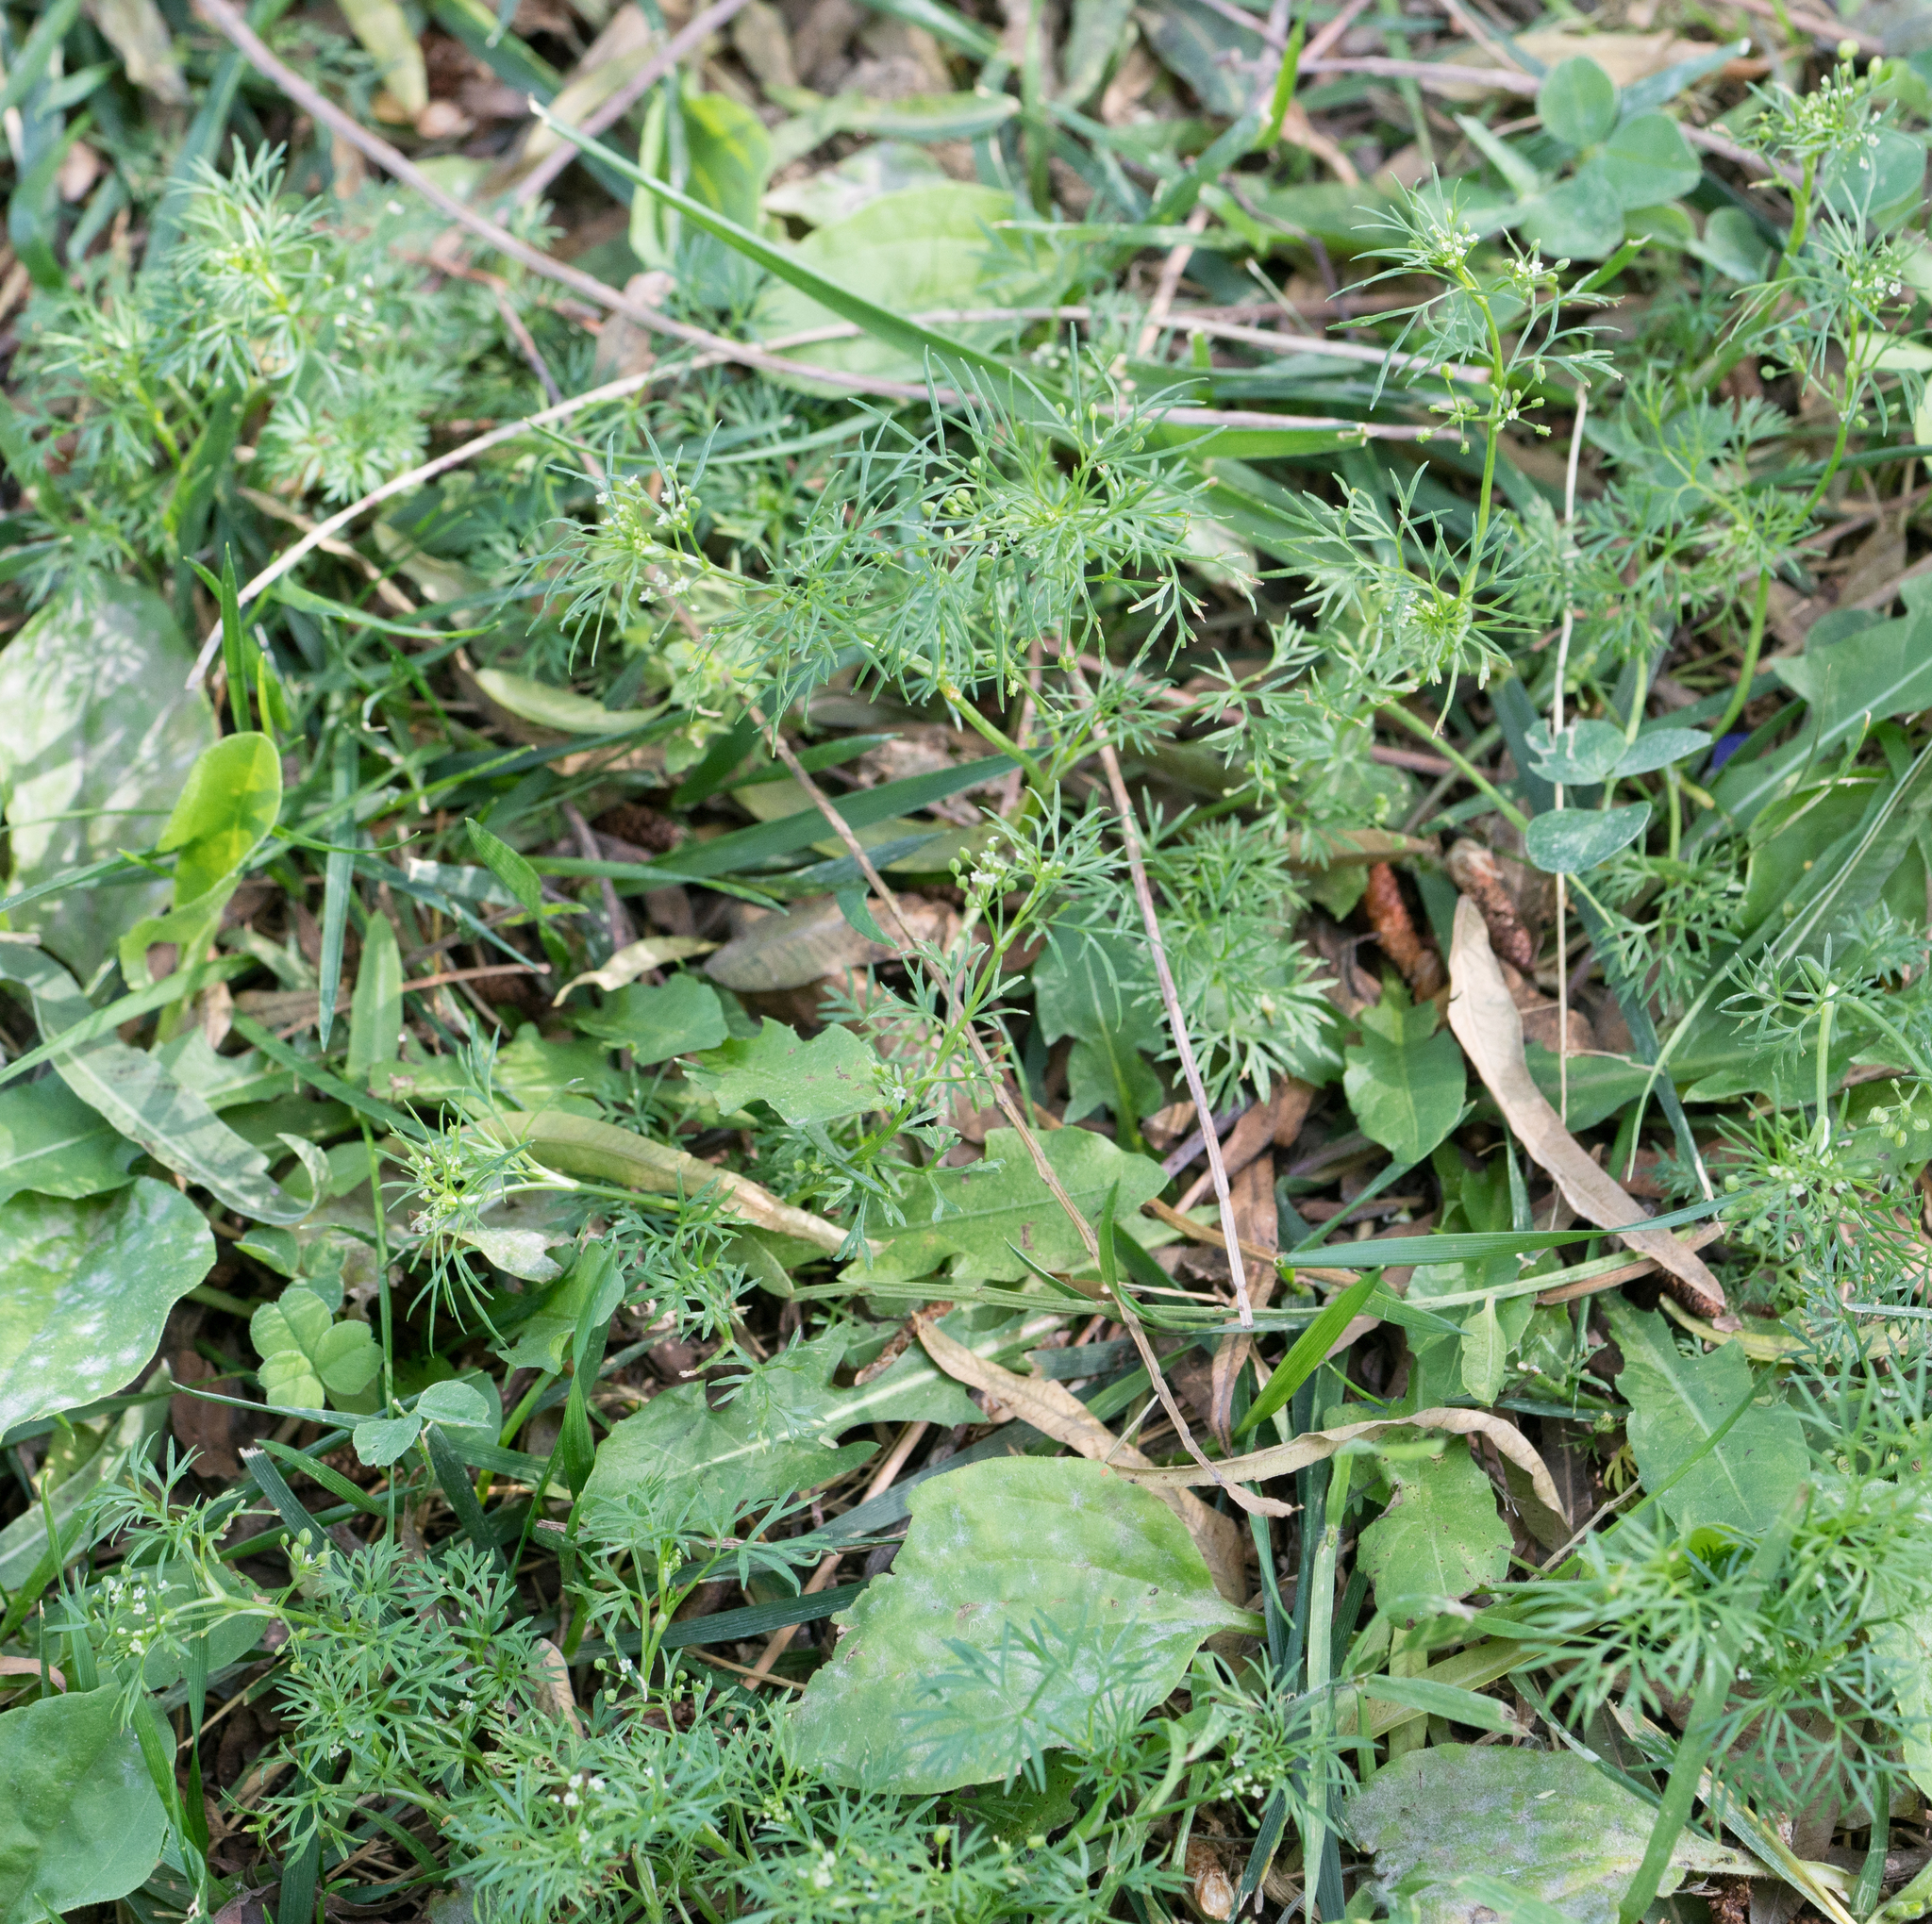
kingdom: Plantae
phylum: Tracheophyta
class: Magnoliopsida
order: Apiales
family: Apiaceae
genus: Cyclospermum
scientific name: Cyclospermum leptophyllum
